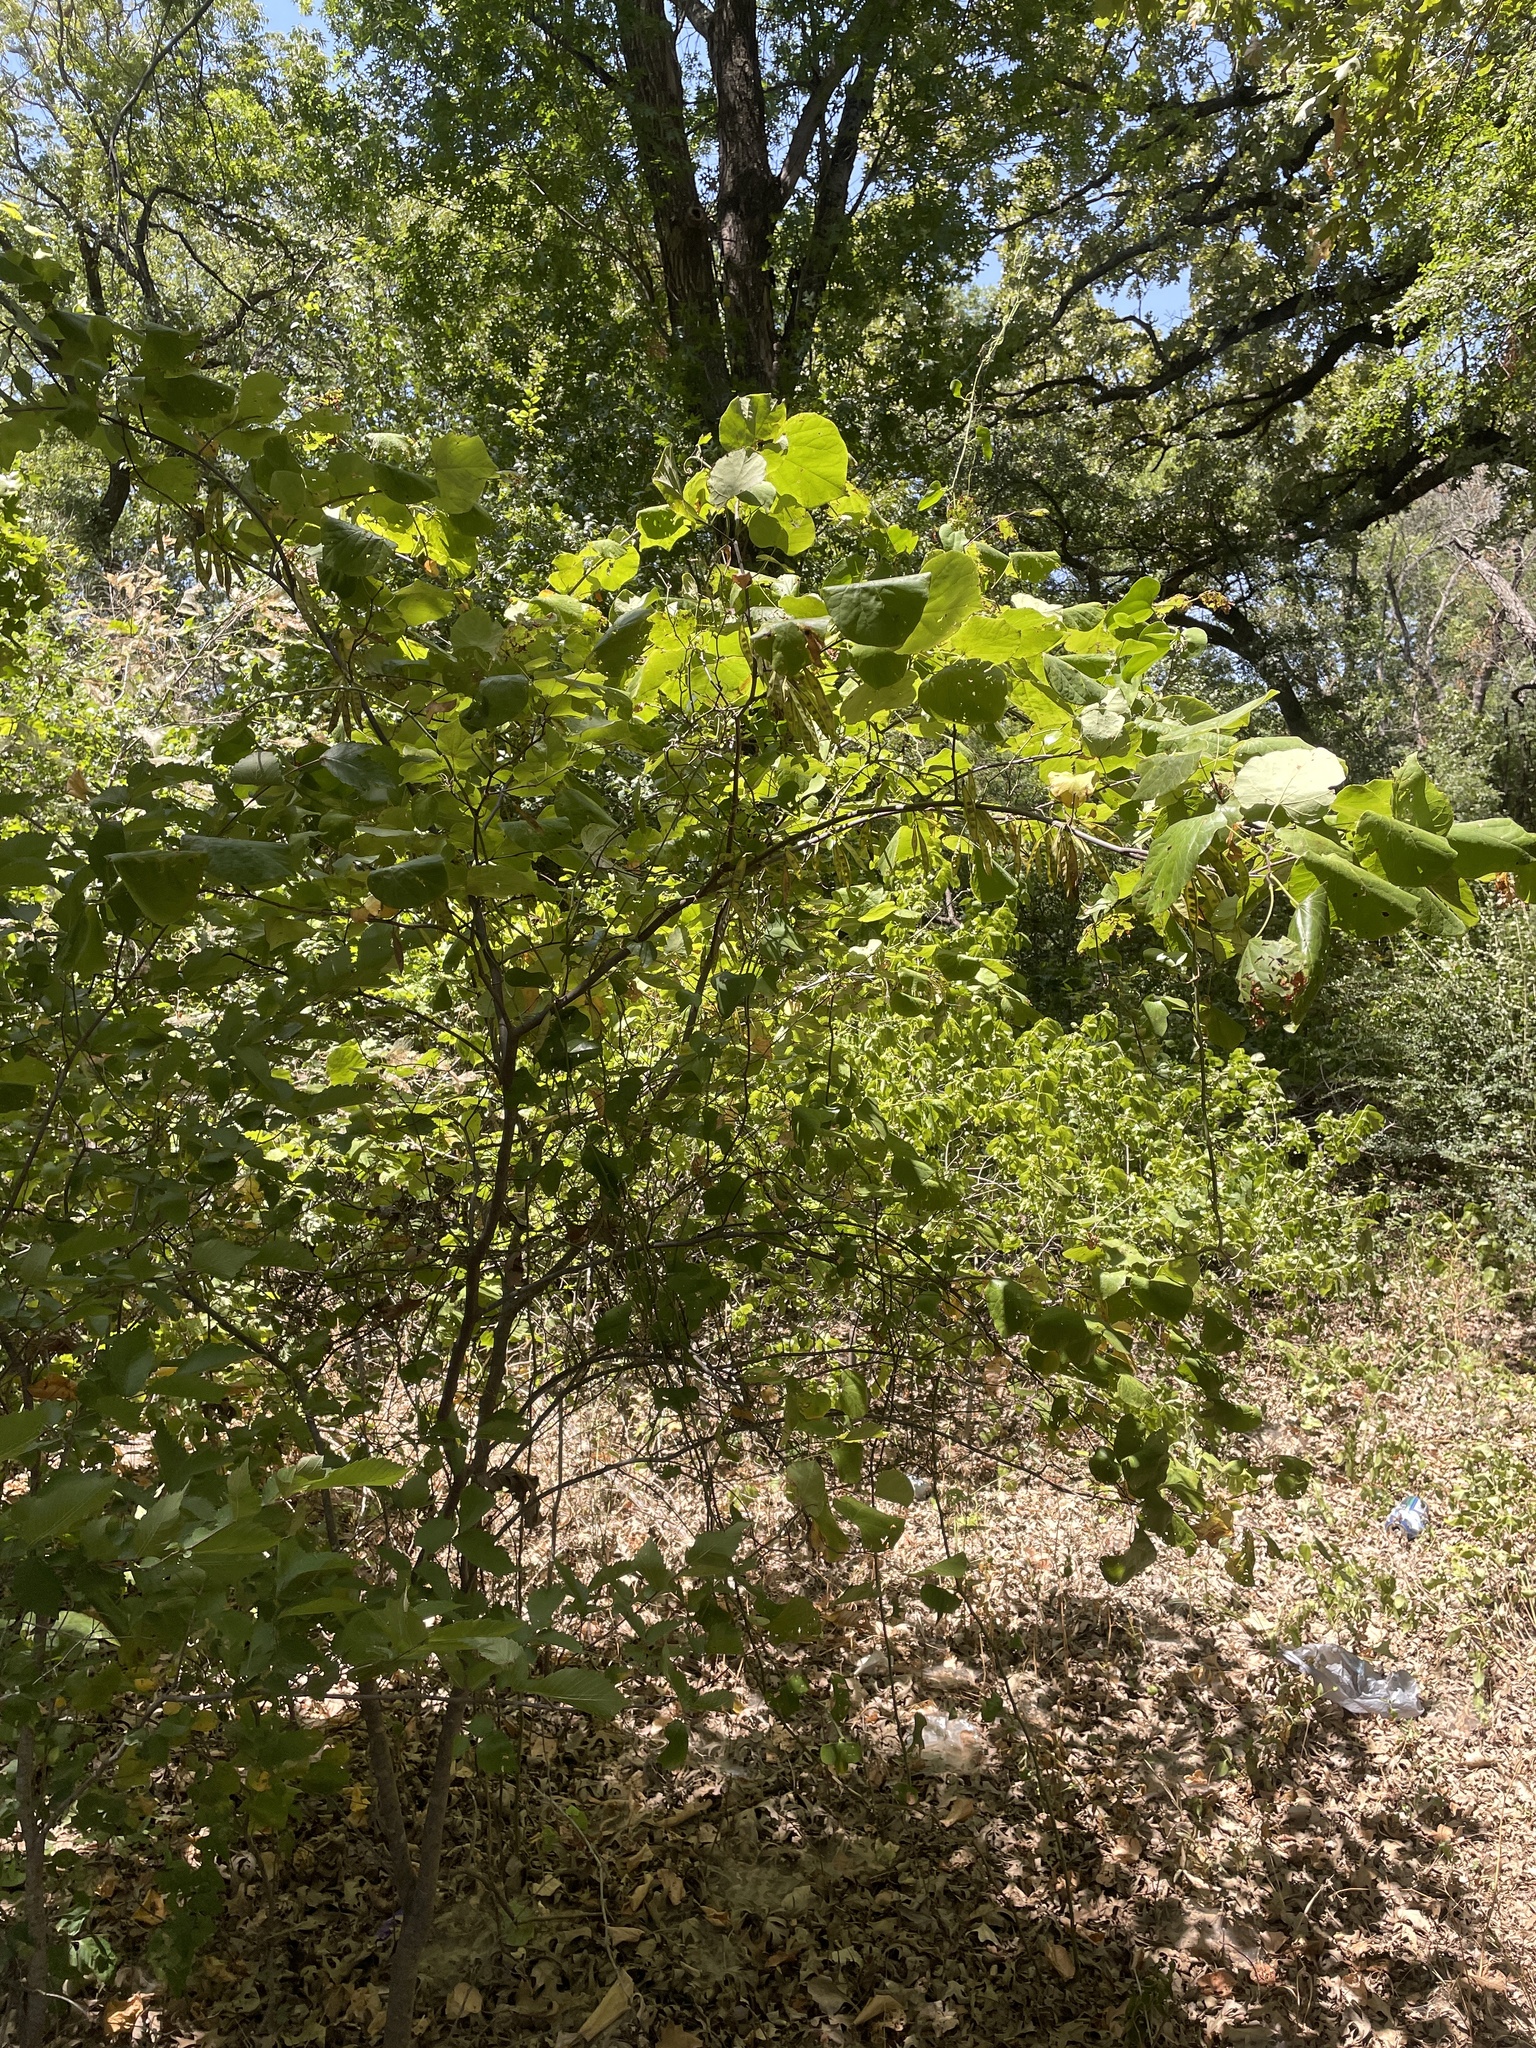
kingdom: Plantae
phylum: Tracheophyta
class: Magnoliopsida
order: Fabales
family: Fabaceae
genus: Cercis
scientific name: Cercis canadensis
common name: Eastern redbud
